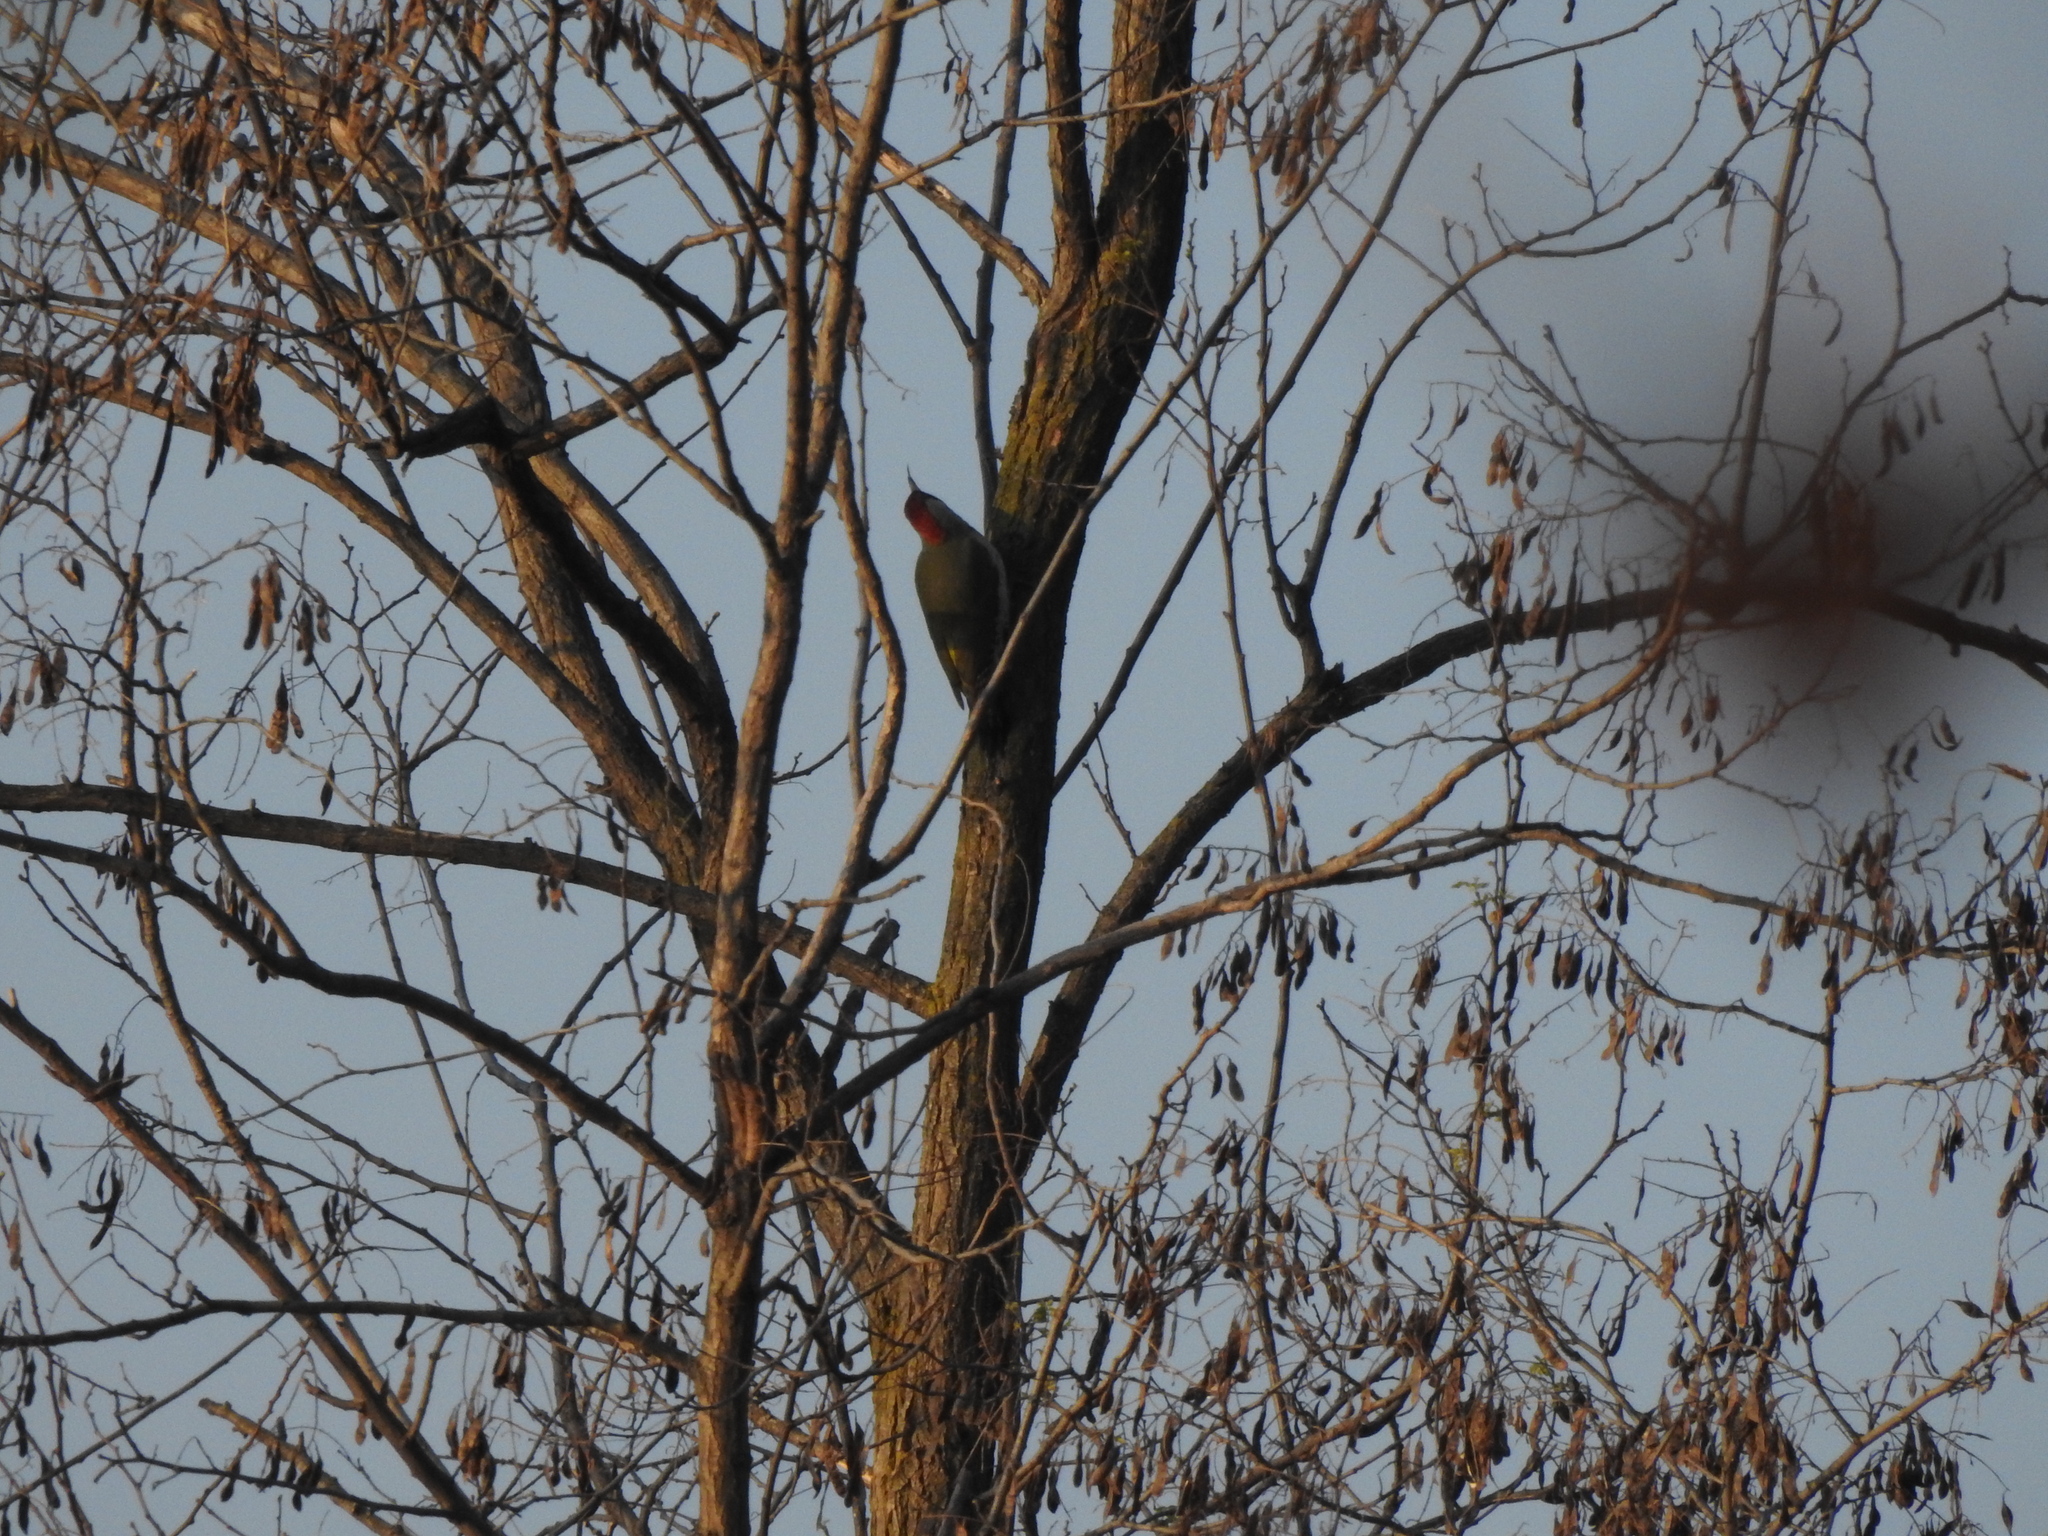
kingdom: Animalia
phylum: Chordata
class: Aves
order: Piciformes
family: Picidae
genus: Picus
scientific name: Picus viridis
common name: European green woodpecker
